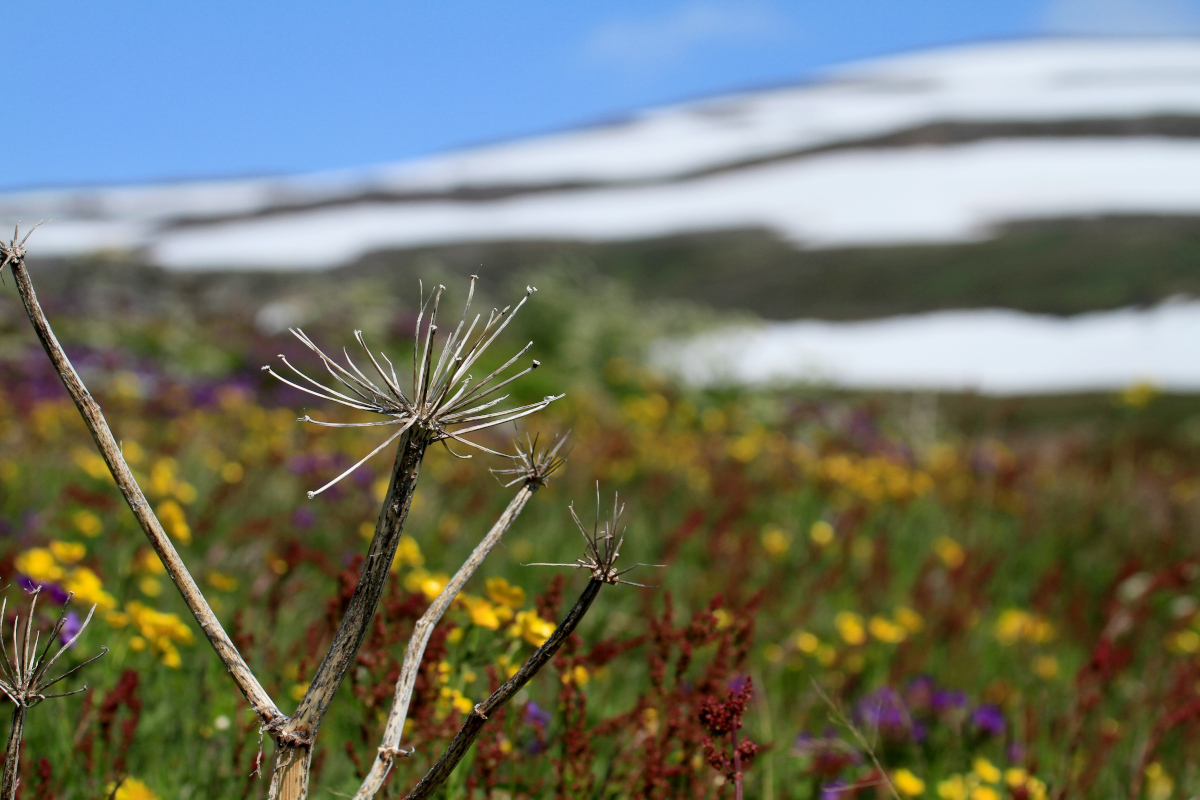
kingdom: Plantae
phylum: Tracheophyta
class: Magnoliopsida
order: Apiales
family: Apiaceae
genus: Angelica
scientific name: Angelica archangelica
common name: Garden angelica
